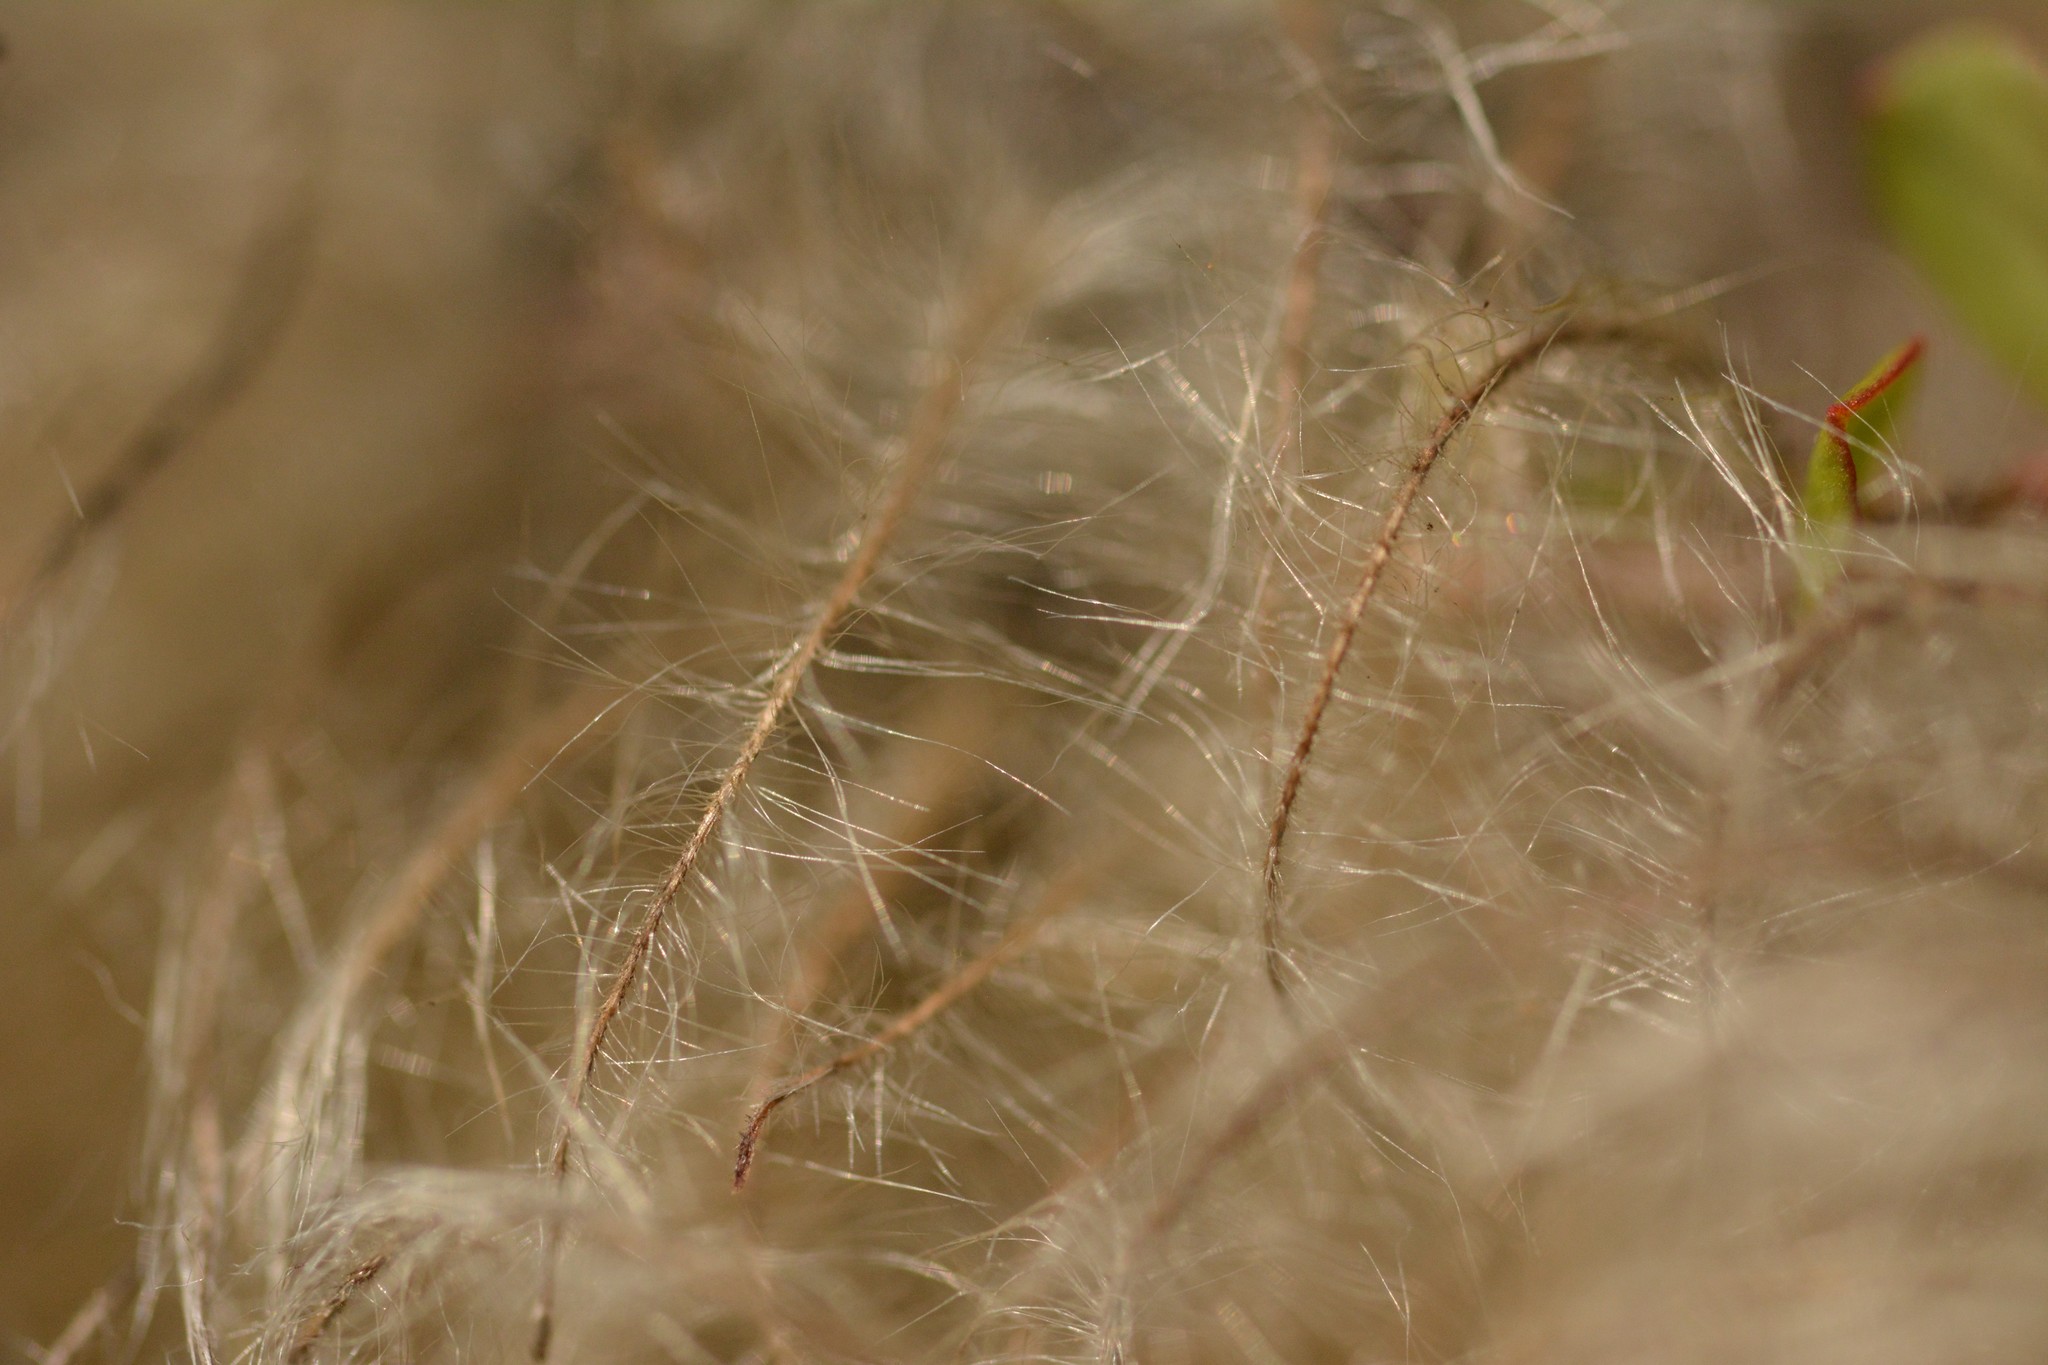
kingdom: Plantae
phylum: Tracheophyta
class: Magnoliopsida
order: Ranunculales
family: Ranunculaceae
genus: Clematis
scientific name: Clematis forsteri
